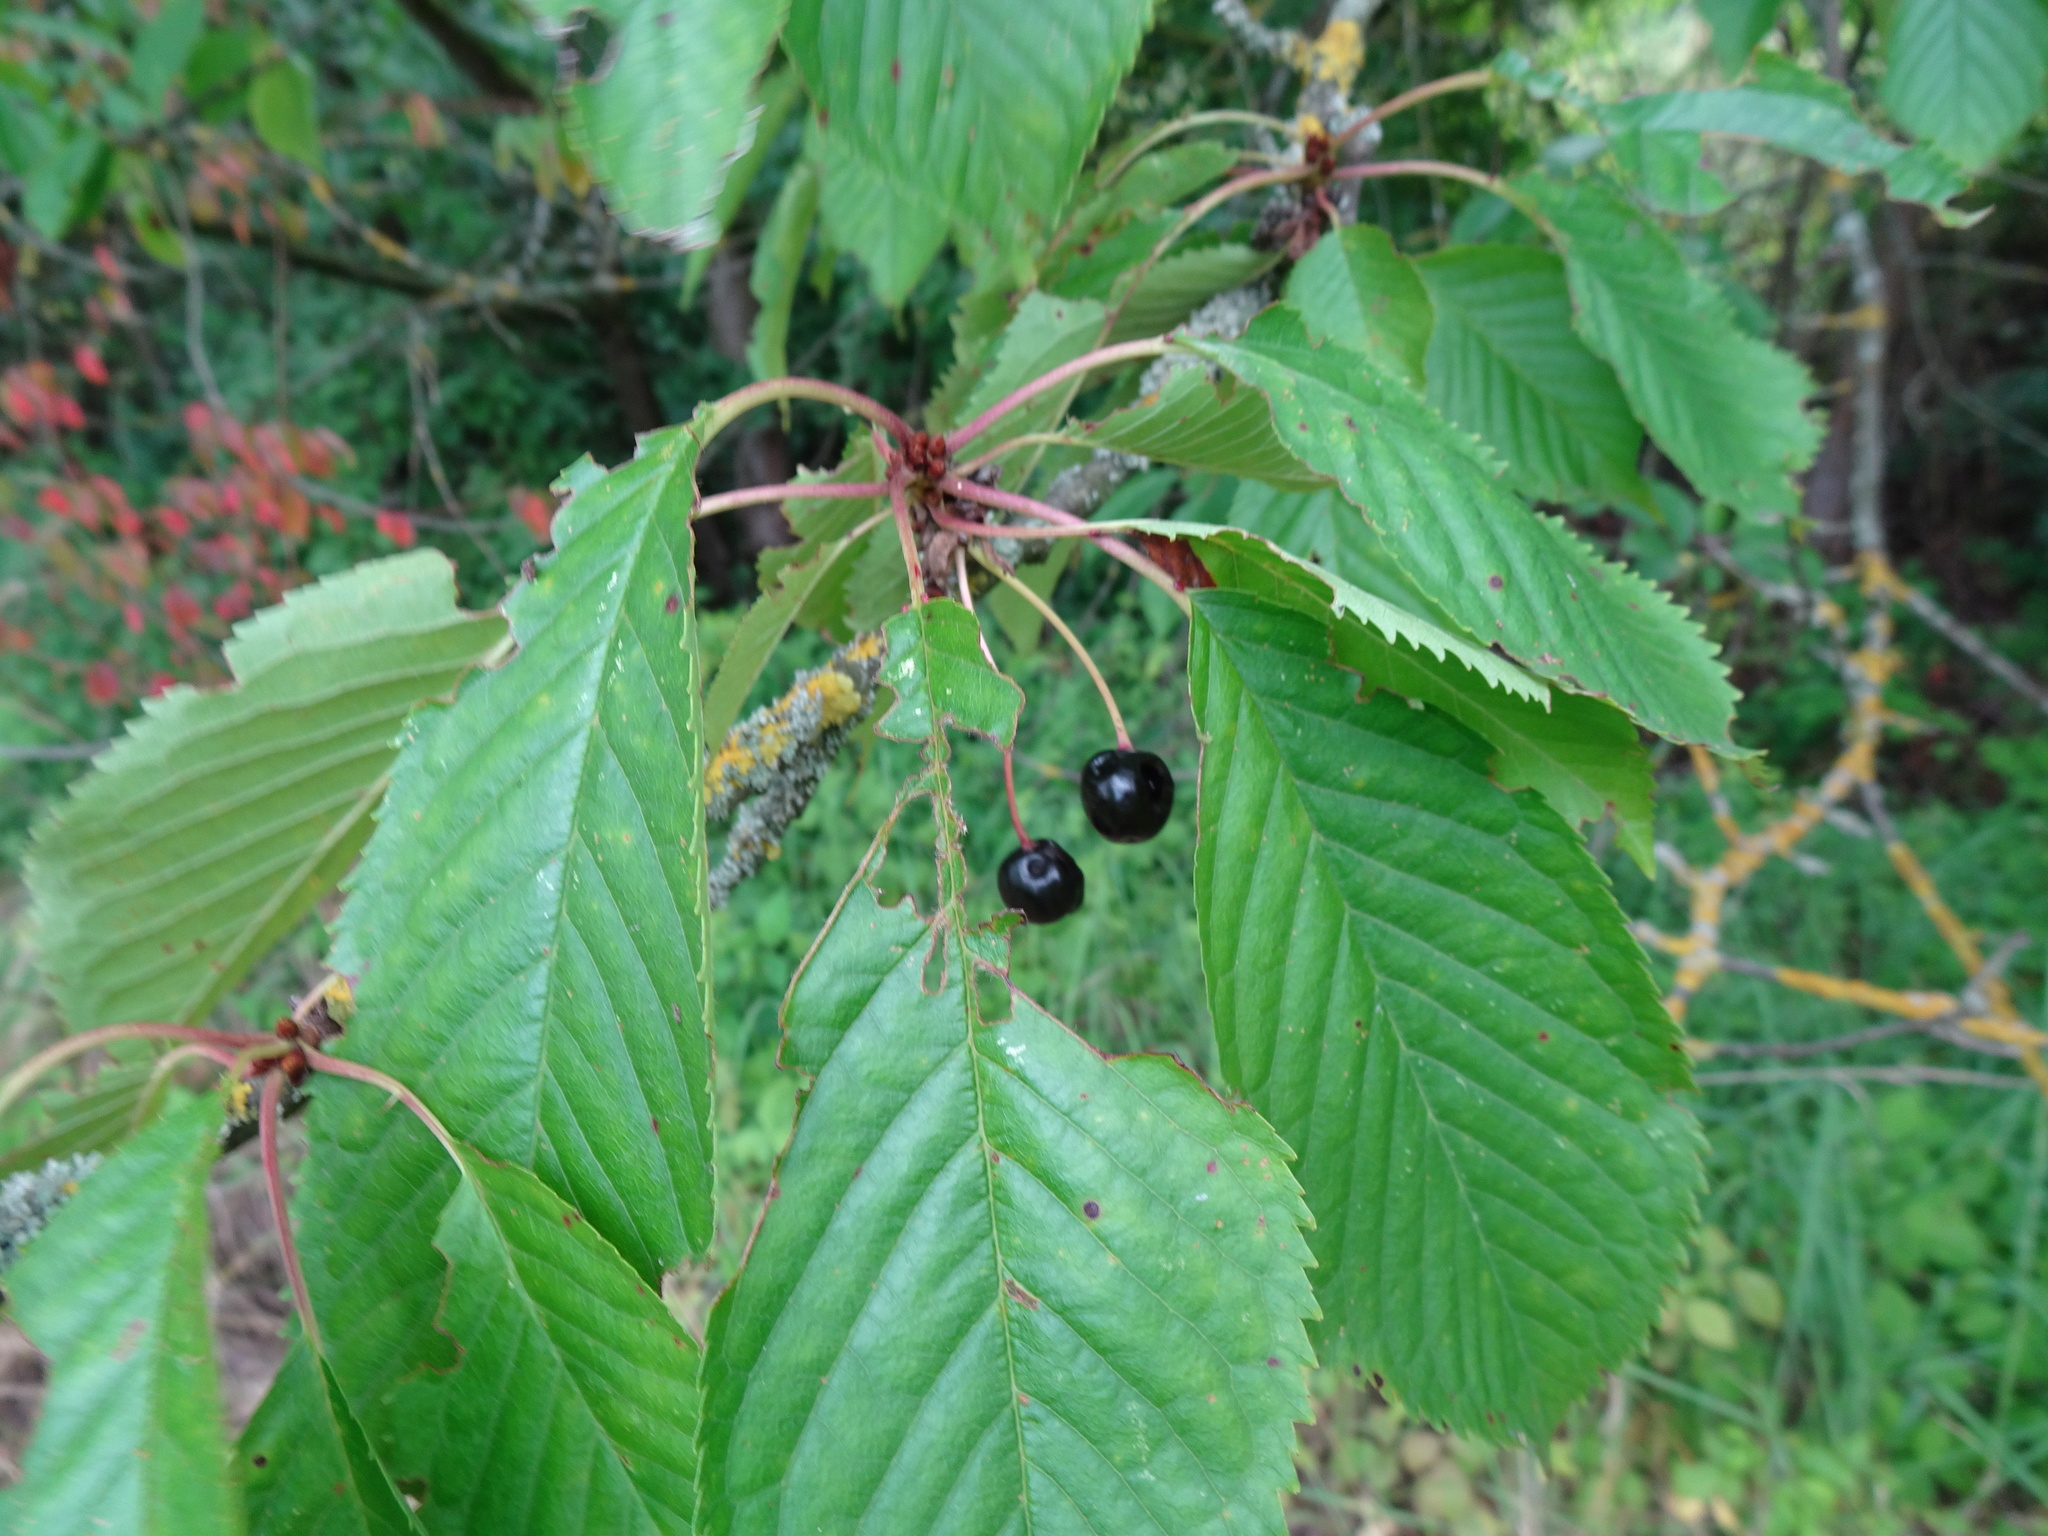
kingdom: Plantae
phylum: Tracheophyta
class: Magnoliopsida
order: Rosales
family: Rosaceae
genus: Prunus
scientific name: Prunus avium
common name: Sweet cherry
